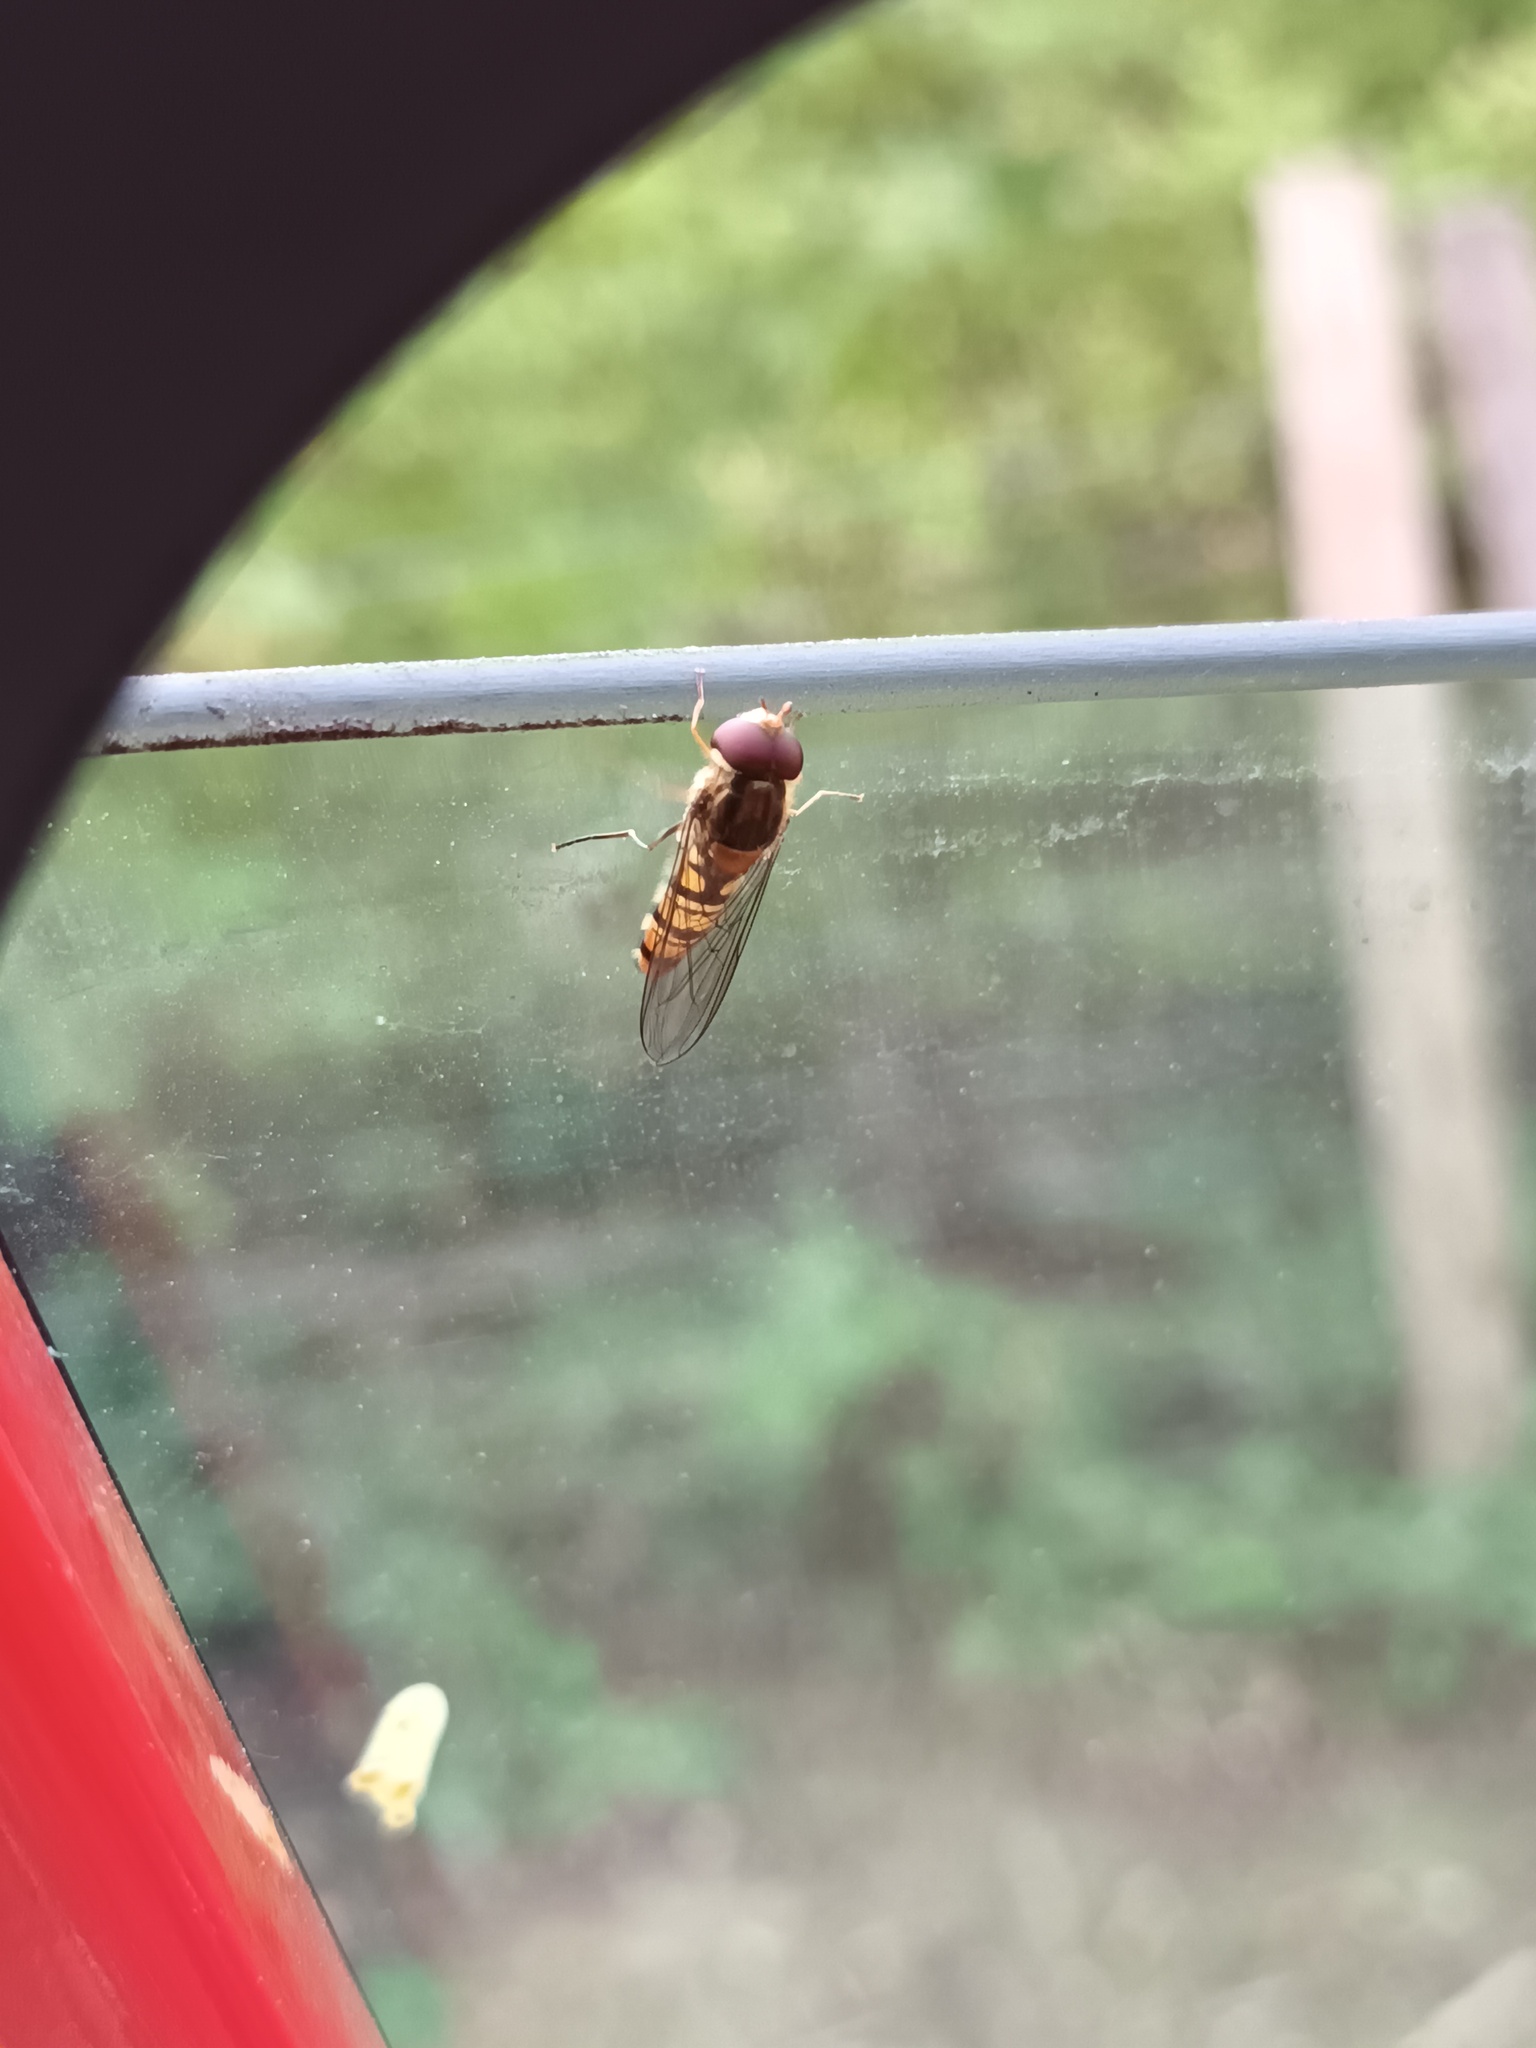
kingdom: Animalia
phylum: Arthropoda
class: Insecta
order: Diptera
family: Syrphidae
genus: Episyrphus
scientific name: Episyrphus balteatus
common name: Marmalade hoverfly
